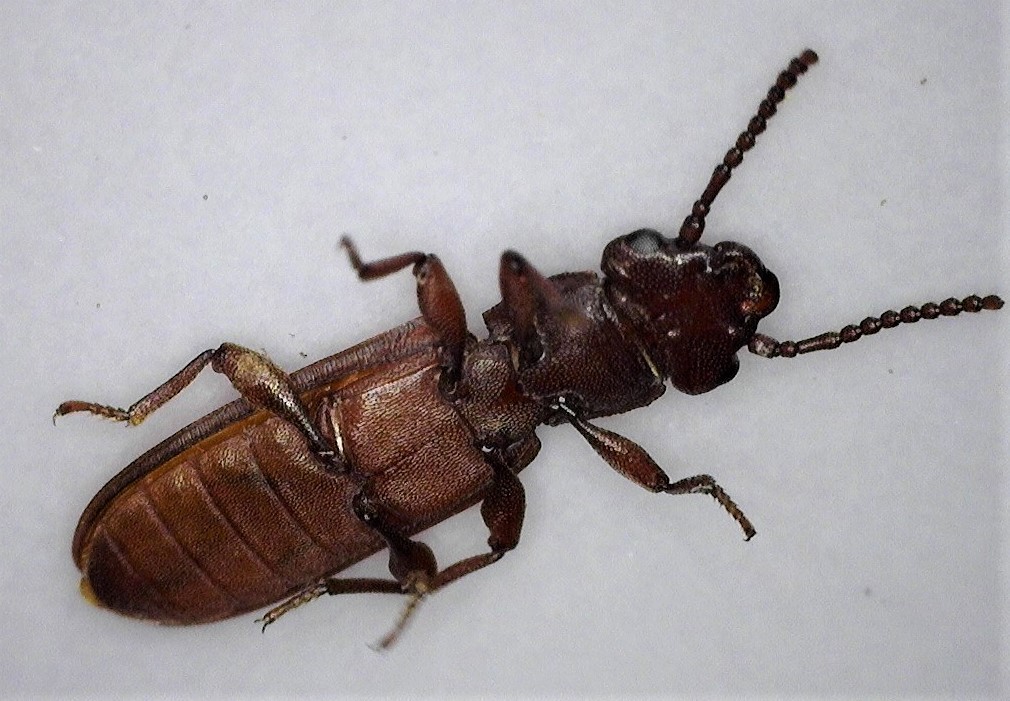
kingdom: Animalia
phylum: Arthropoda
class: Insecta
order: Coleoptera
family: Cucujidae
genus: Platisus
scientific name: Platisus
